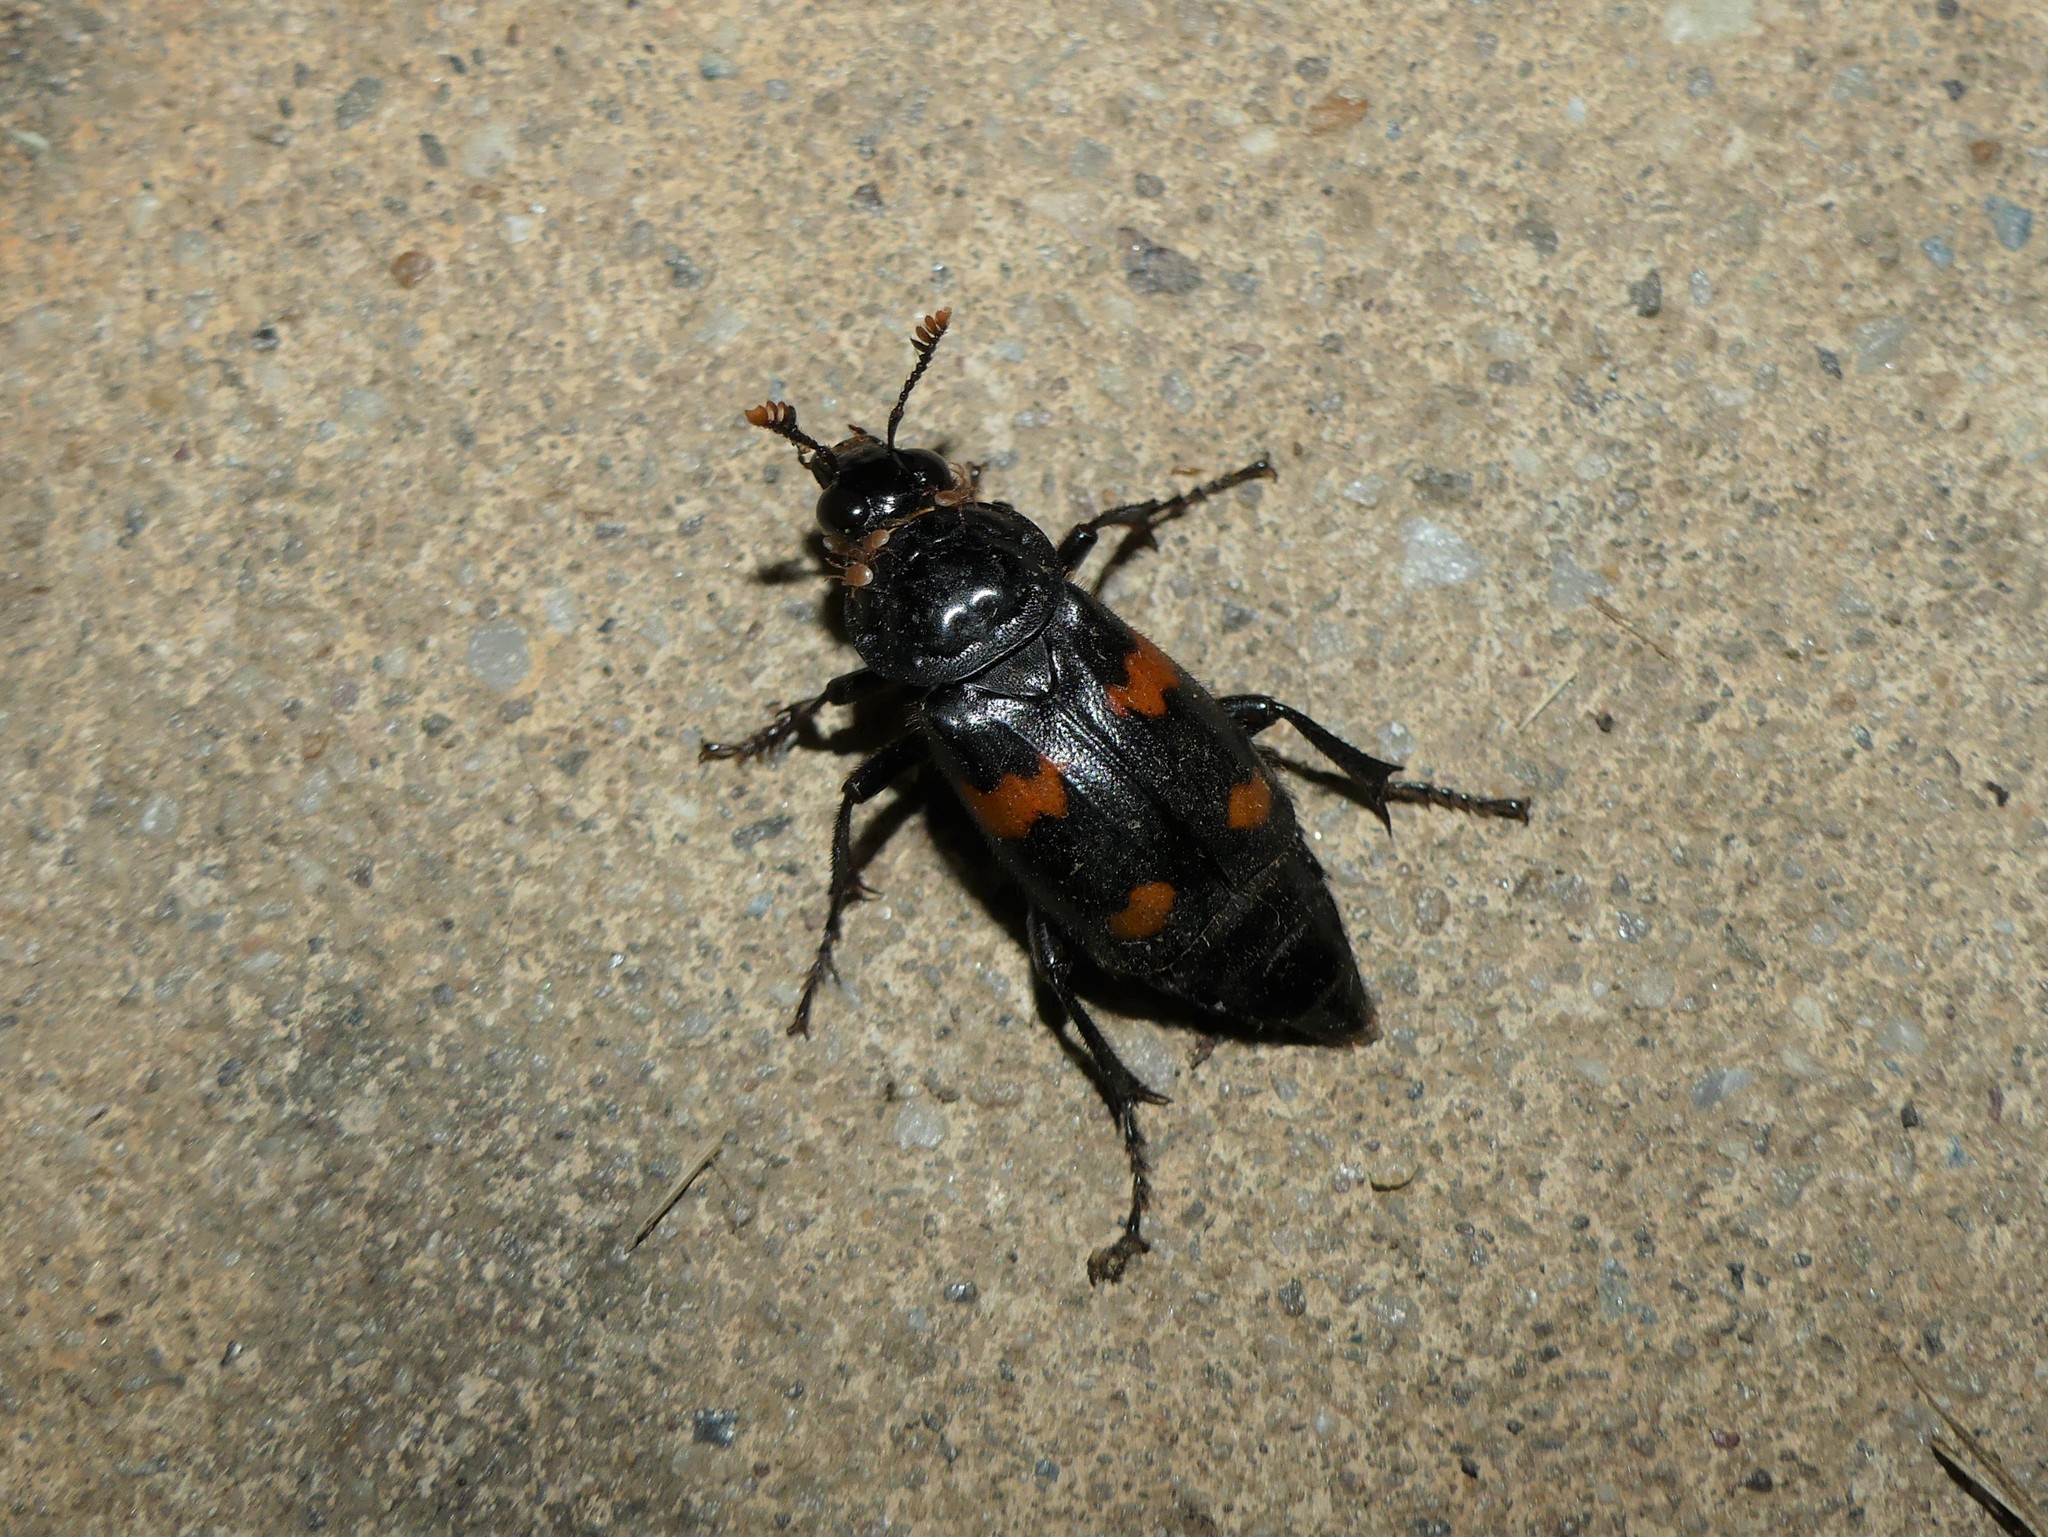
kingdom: Animalia
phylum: Arthropoda
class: Insecta
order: Coleoptera
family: Staphylinidae
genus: Nicrophorus
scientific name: Nicrophorus orbicollis
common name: Roundneck sexton beetle
